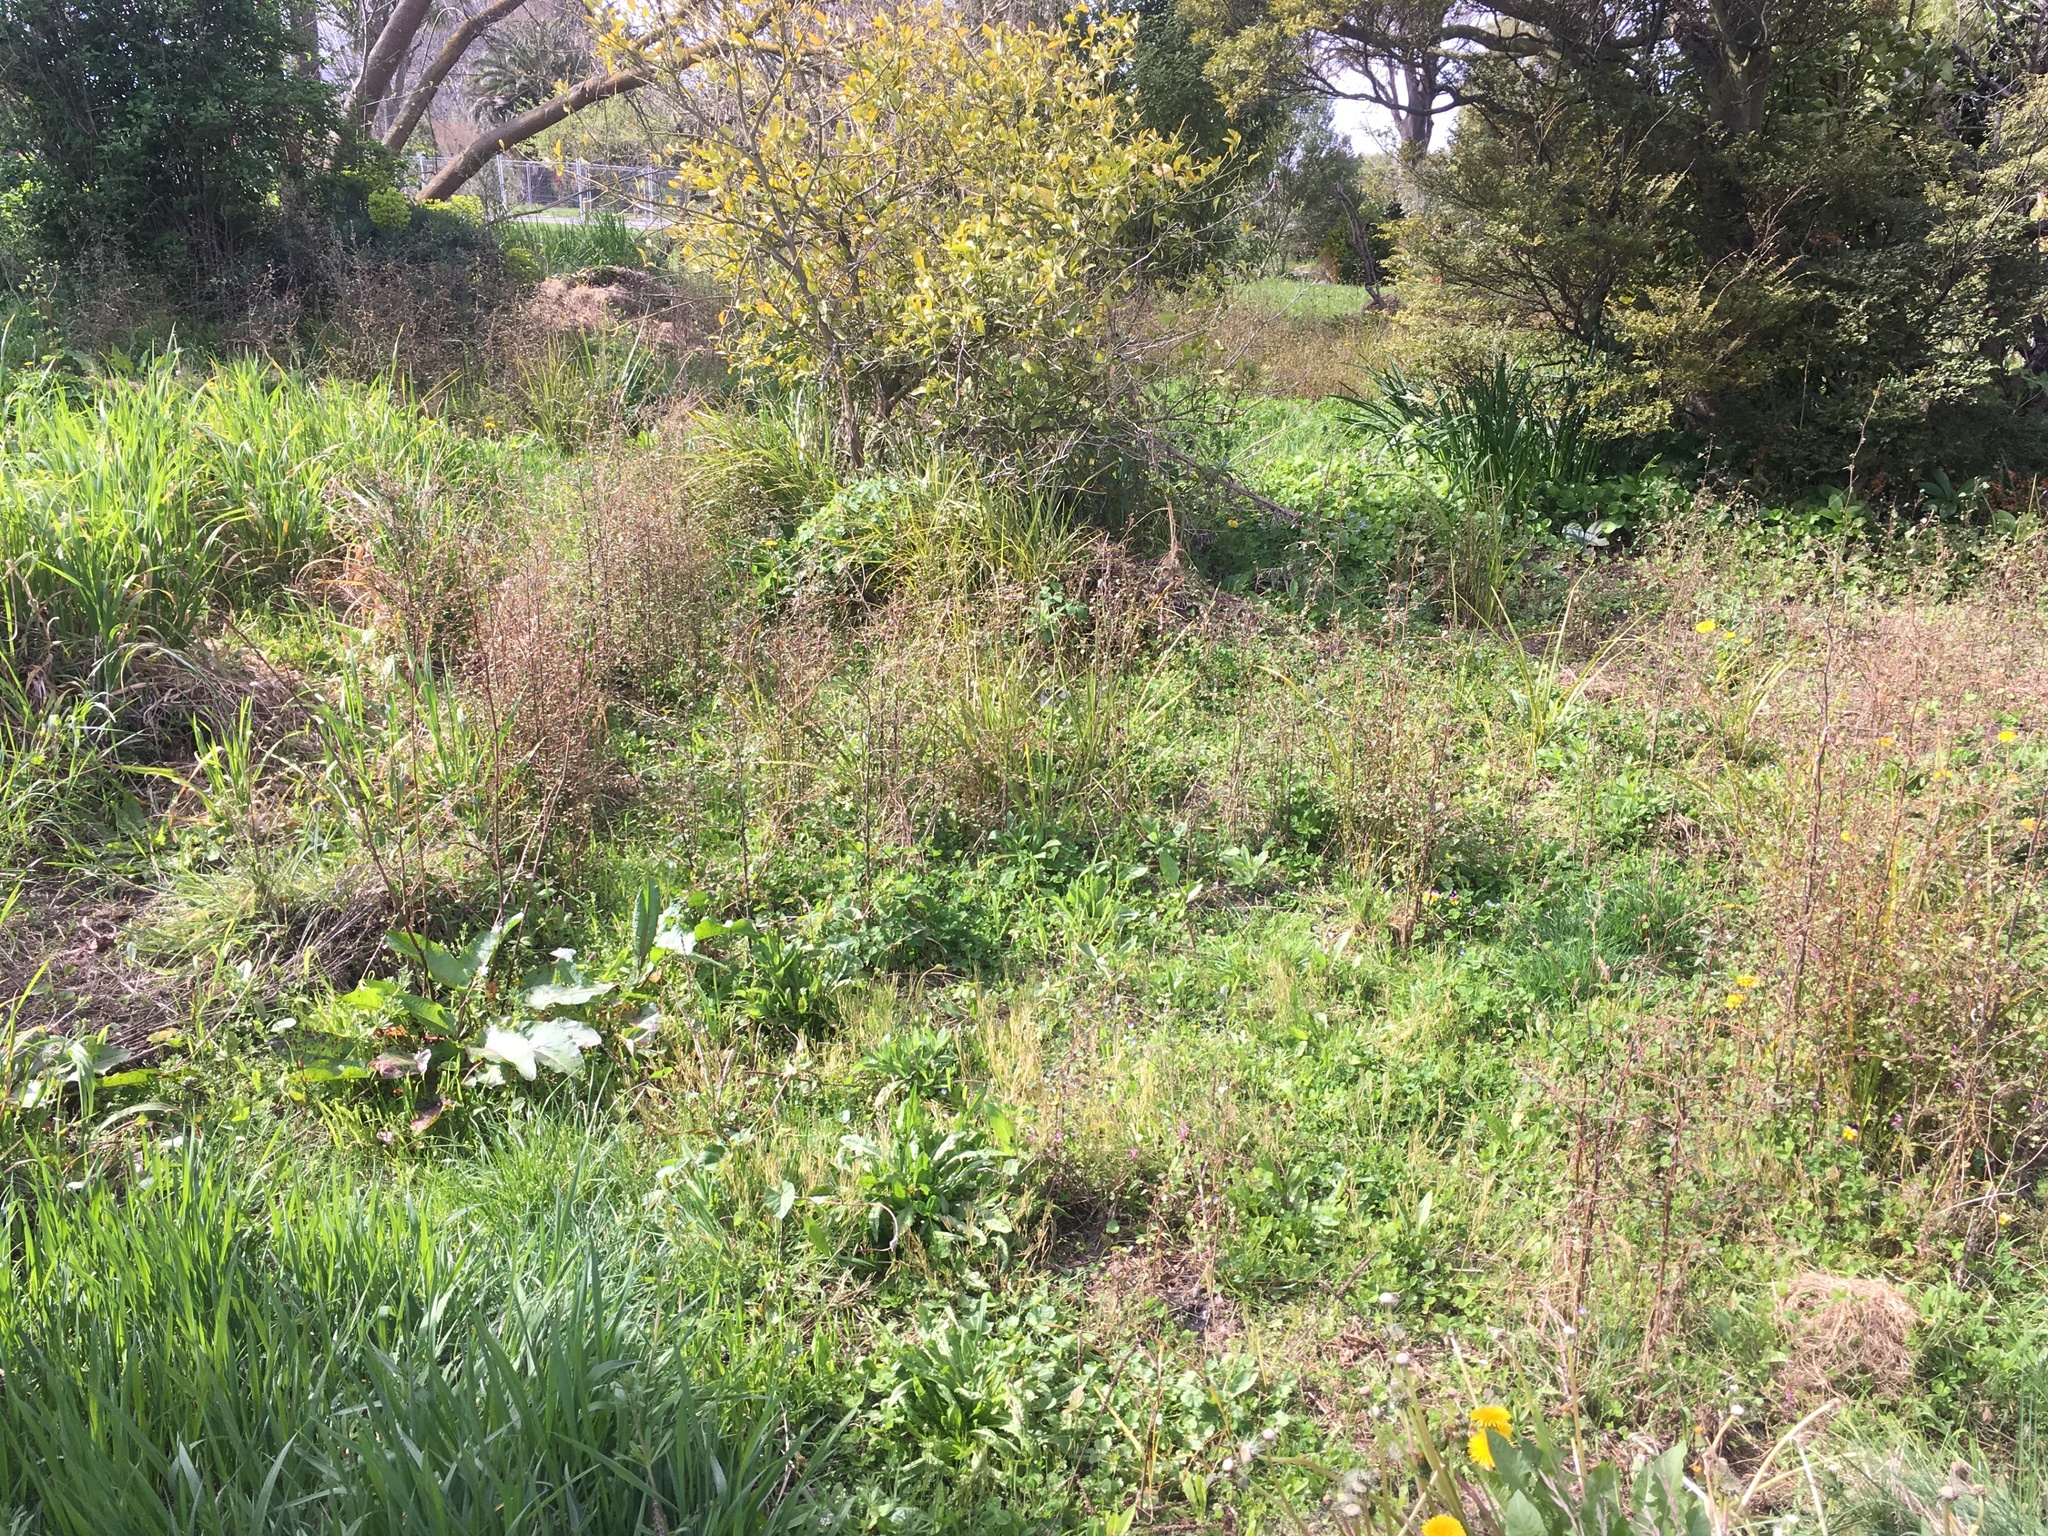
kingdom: Plantae
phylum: Tracheophyta
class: Magnoliopsida
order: Malvales
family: Malvaceae
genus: Plagianthus
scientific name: Plagianthus regius
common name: Manatu
